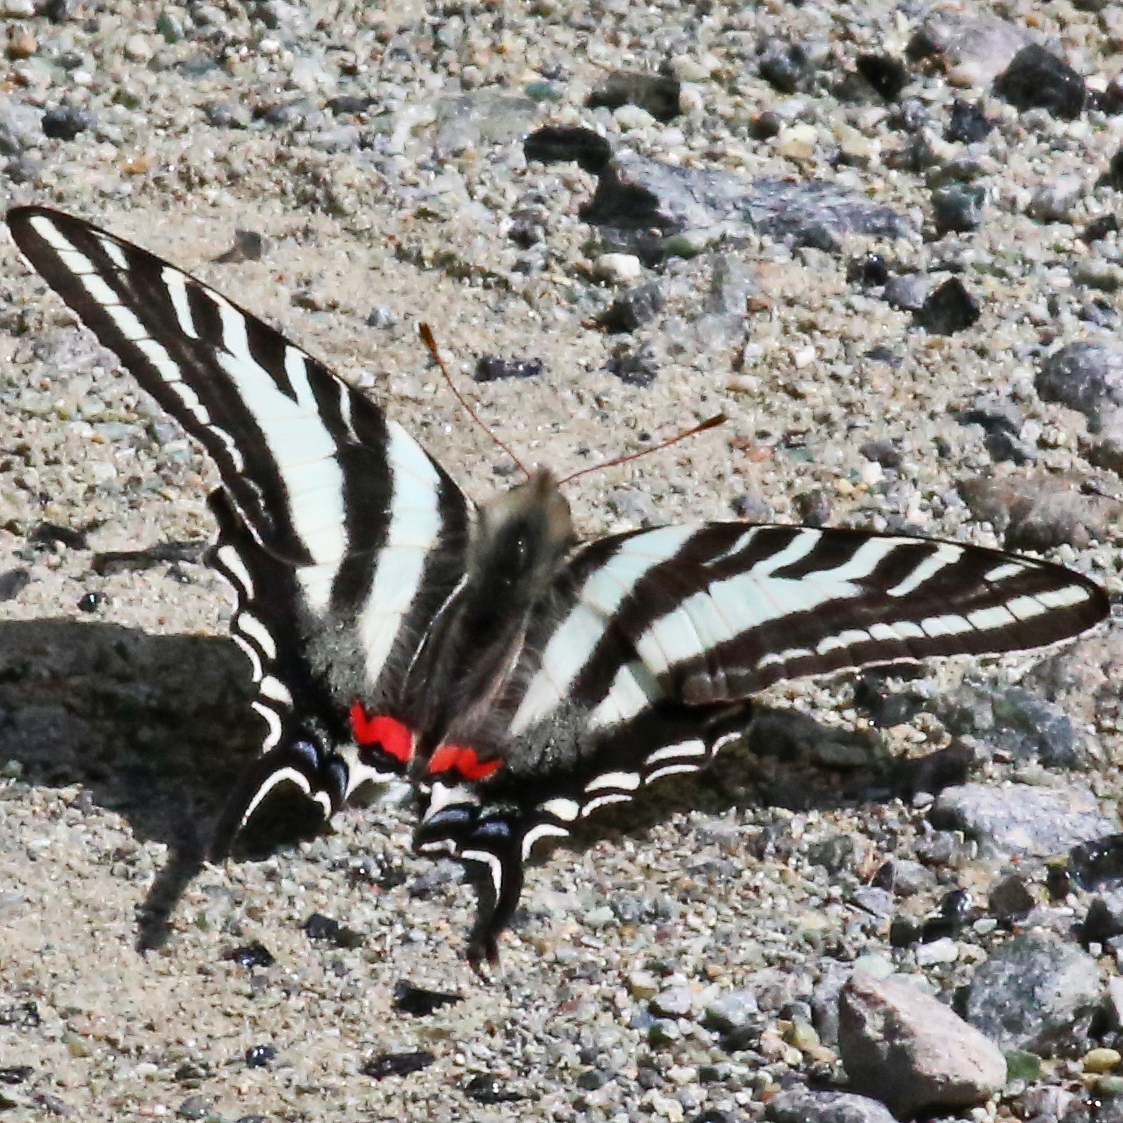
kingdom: Animalia
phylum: Arthropoda
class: Insecta
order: Lepidoptera
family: Papilionidae
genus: Protographium
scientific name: Protographium marcellus
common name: Zebra swallowtail
